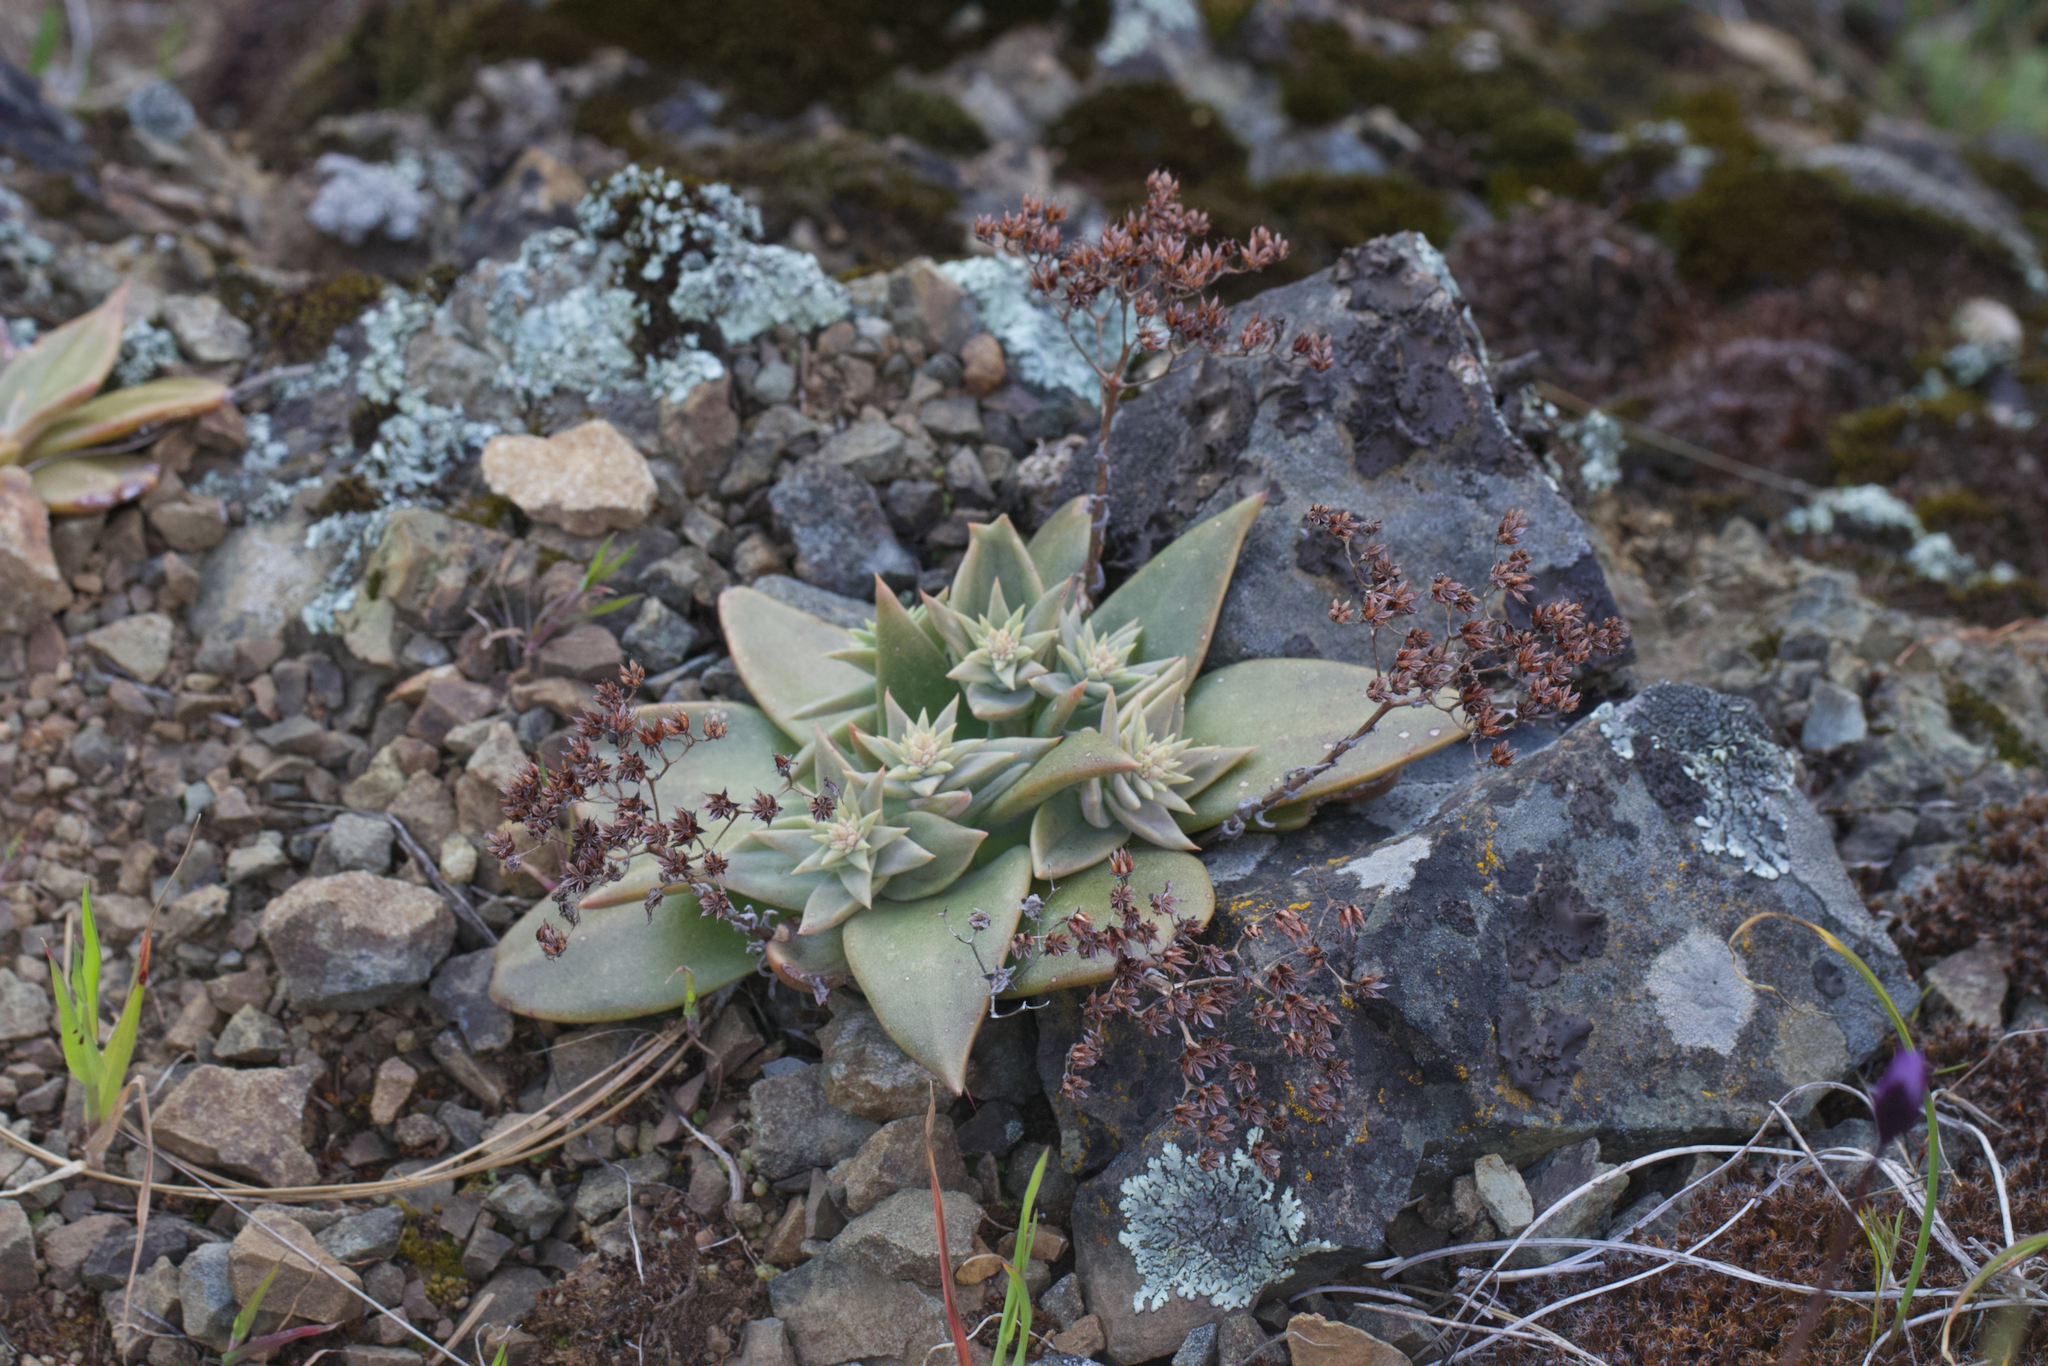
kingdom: Plantae
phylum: Tracheophyta
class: Magnoliopsida
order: Saxifragales
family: Crassulaceae
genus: Dudleya
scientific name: Dudleya cymosa
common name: Canyon dudleya
